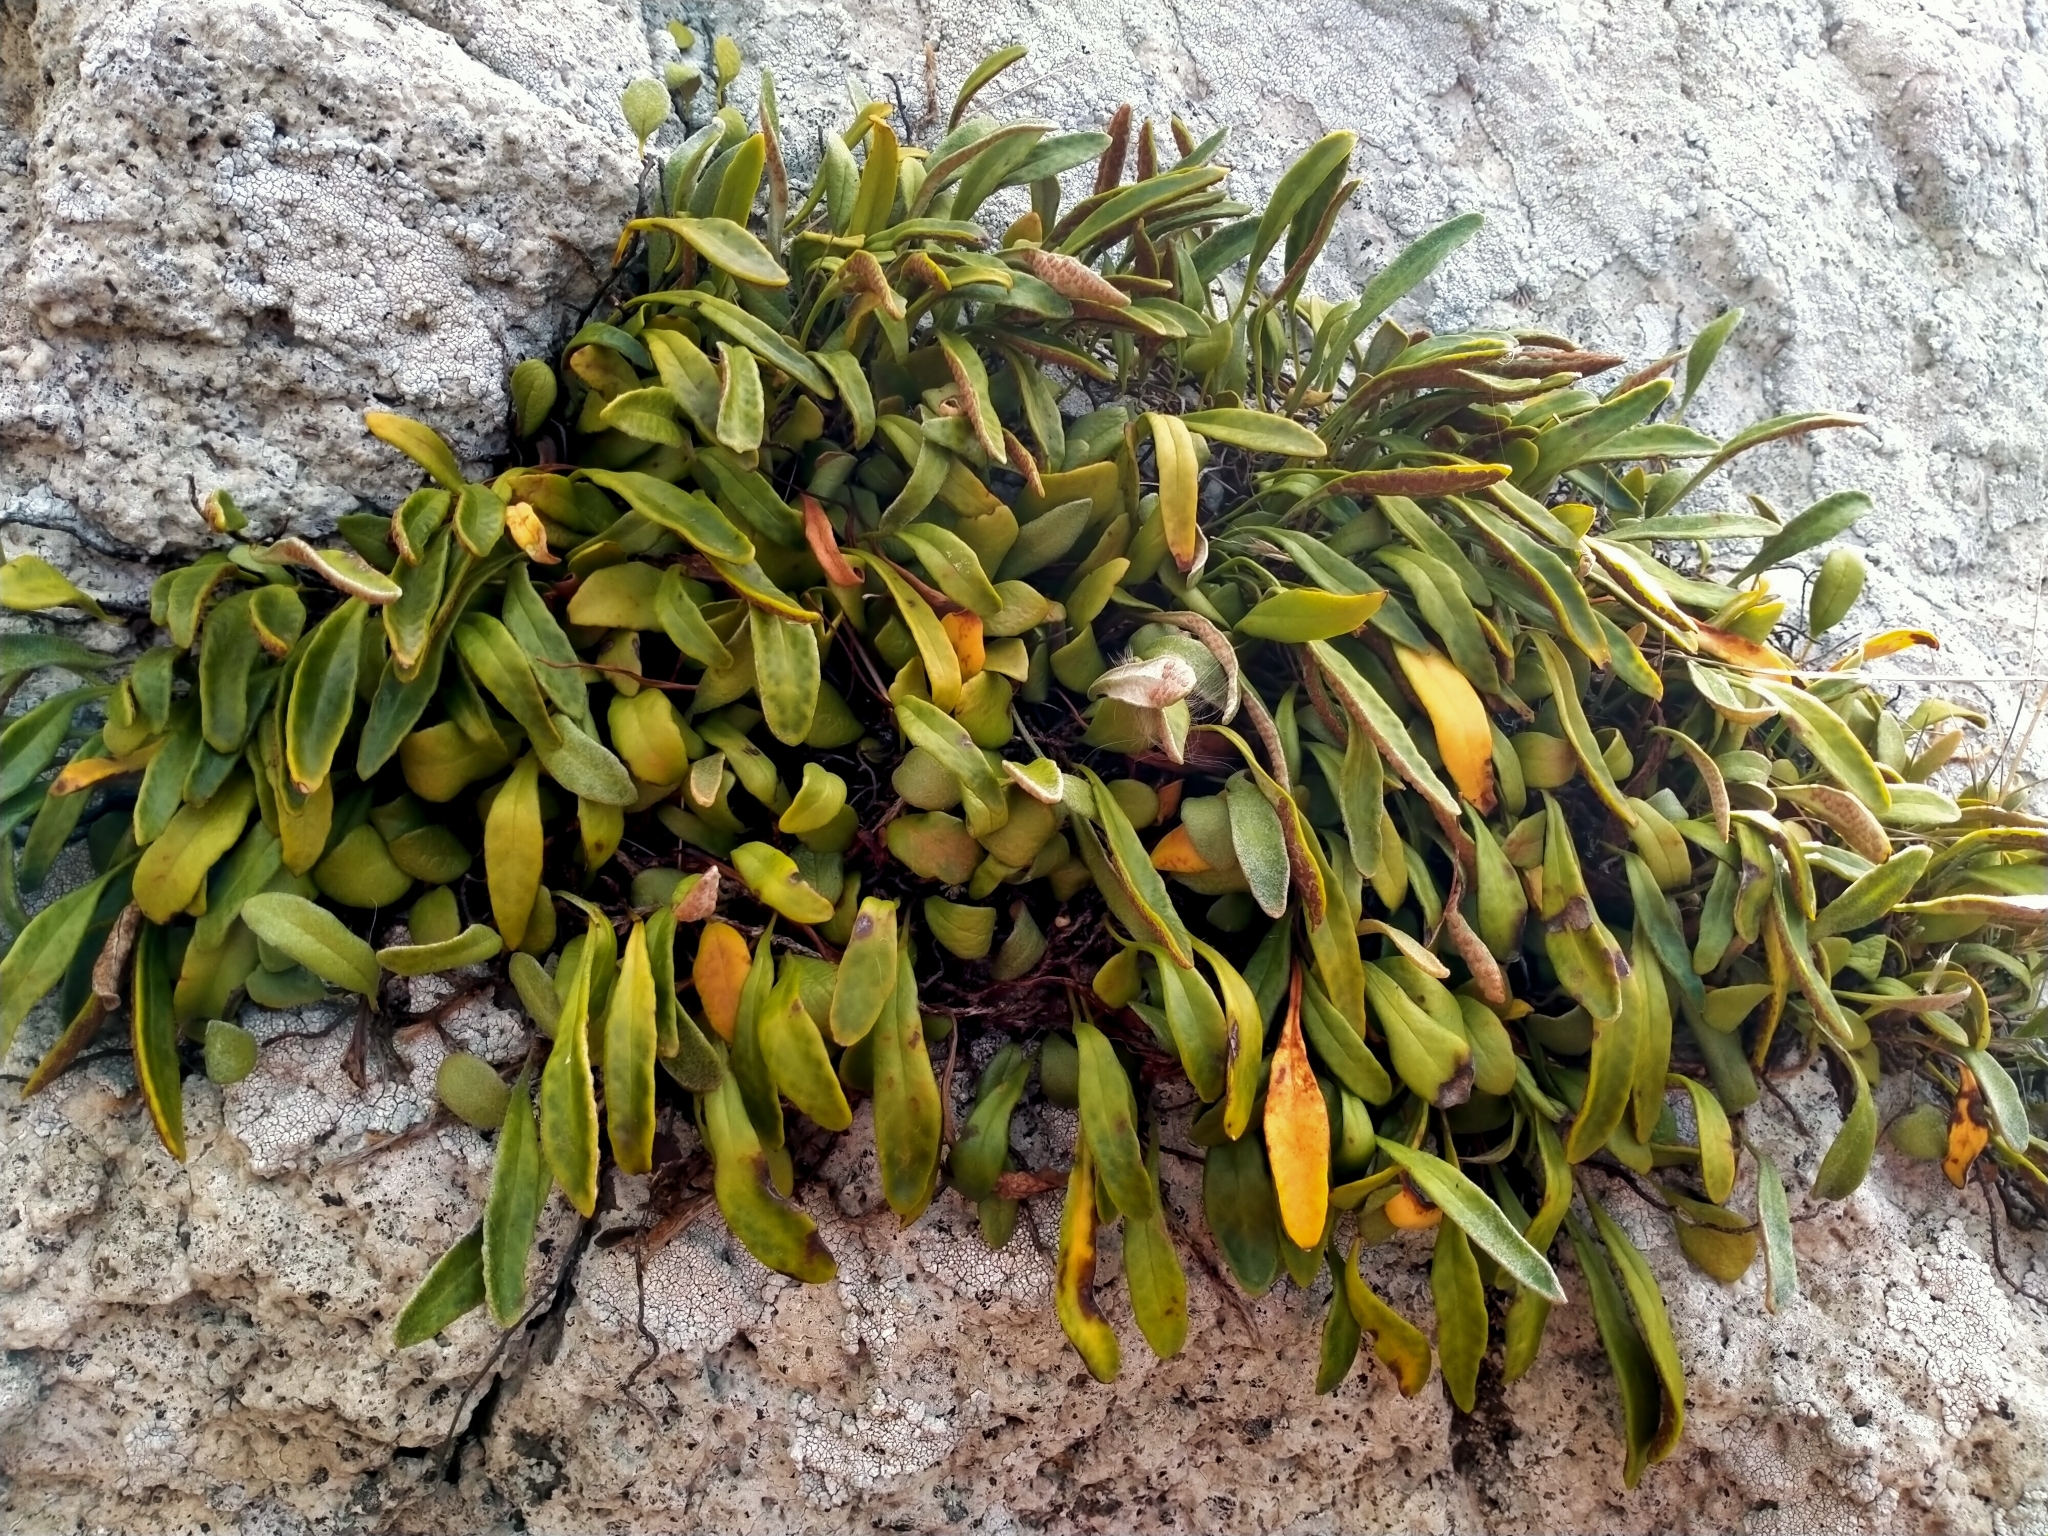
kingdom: Plantae
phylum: Tracheophyta
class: Polypodiopsida
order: Polypodiales
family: Polypodiaceae
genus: Pyrrosia
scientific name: Pyrrosia eleagnifolia
